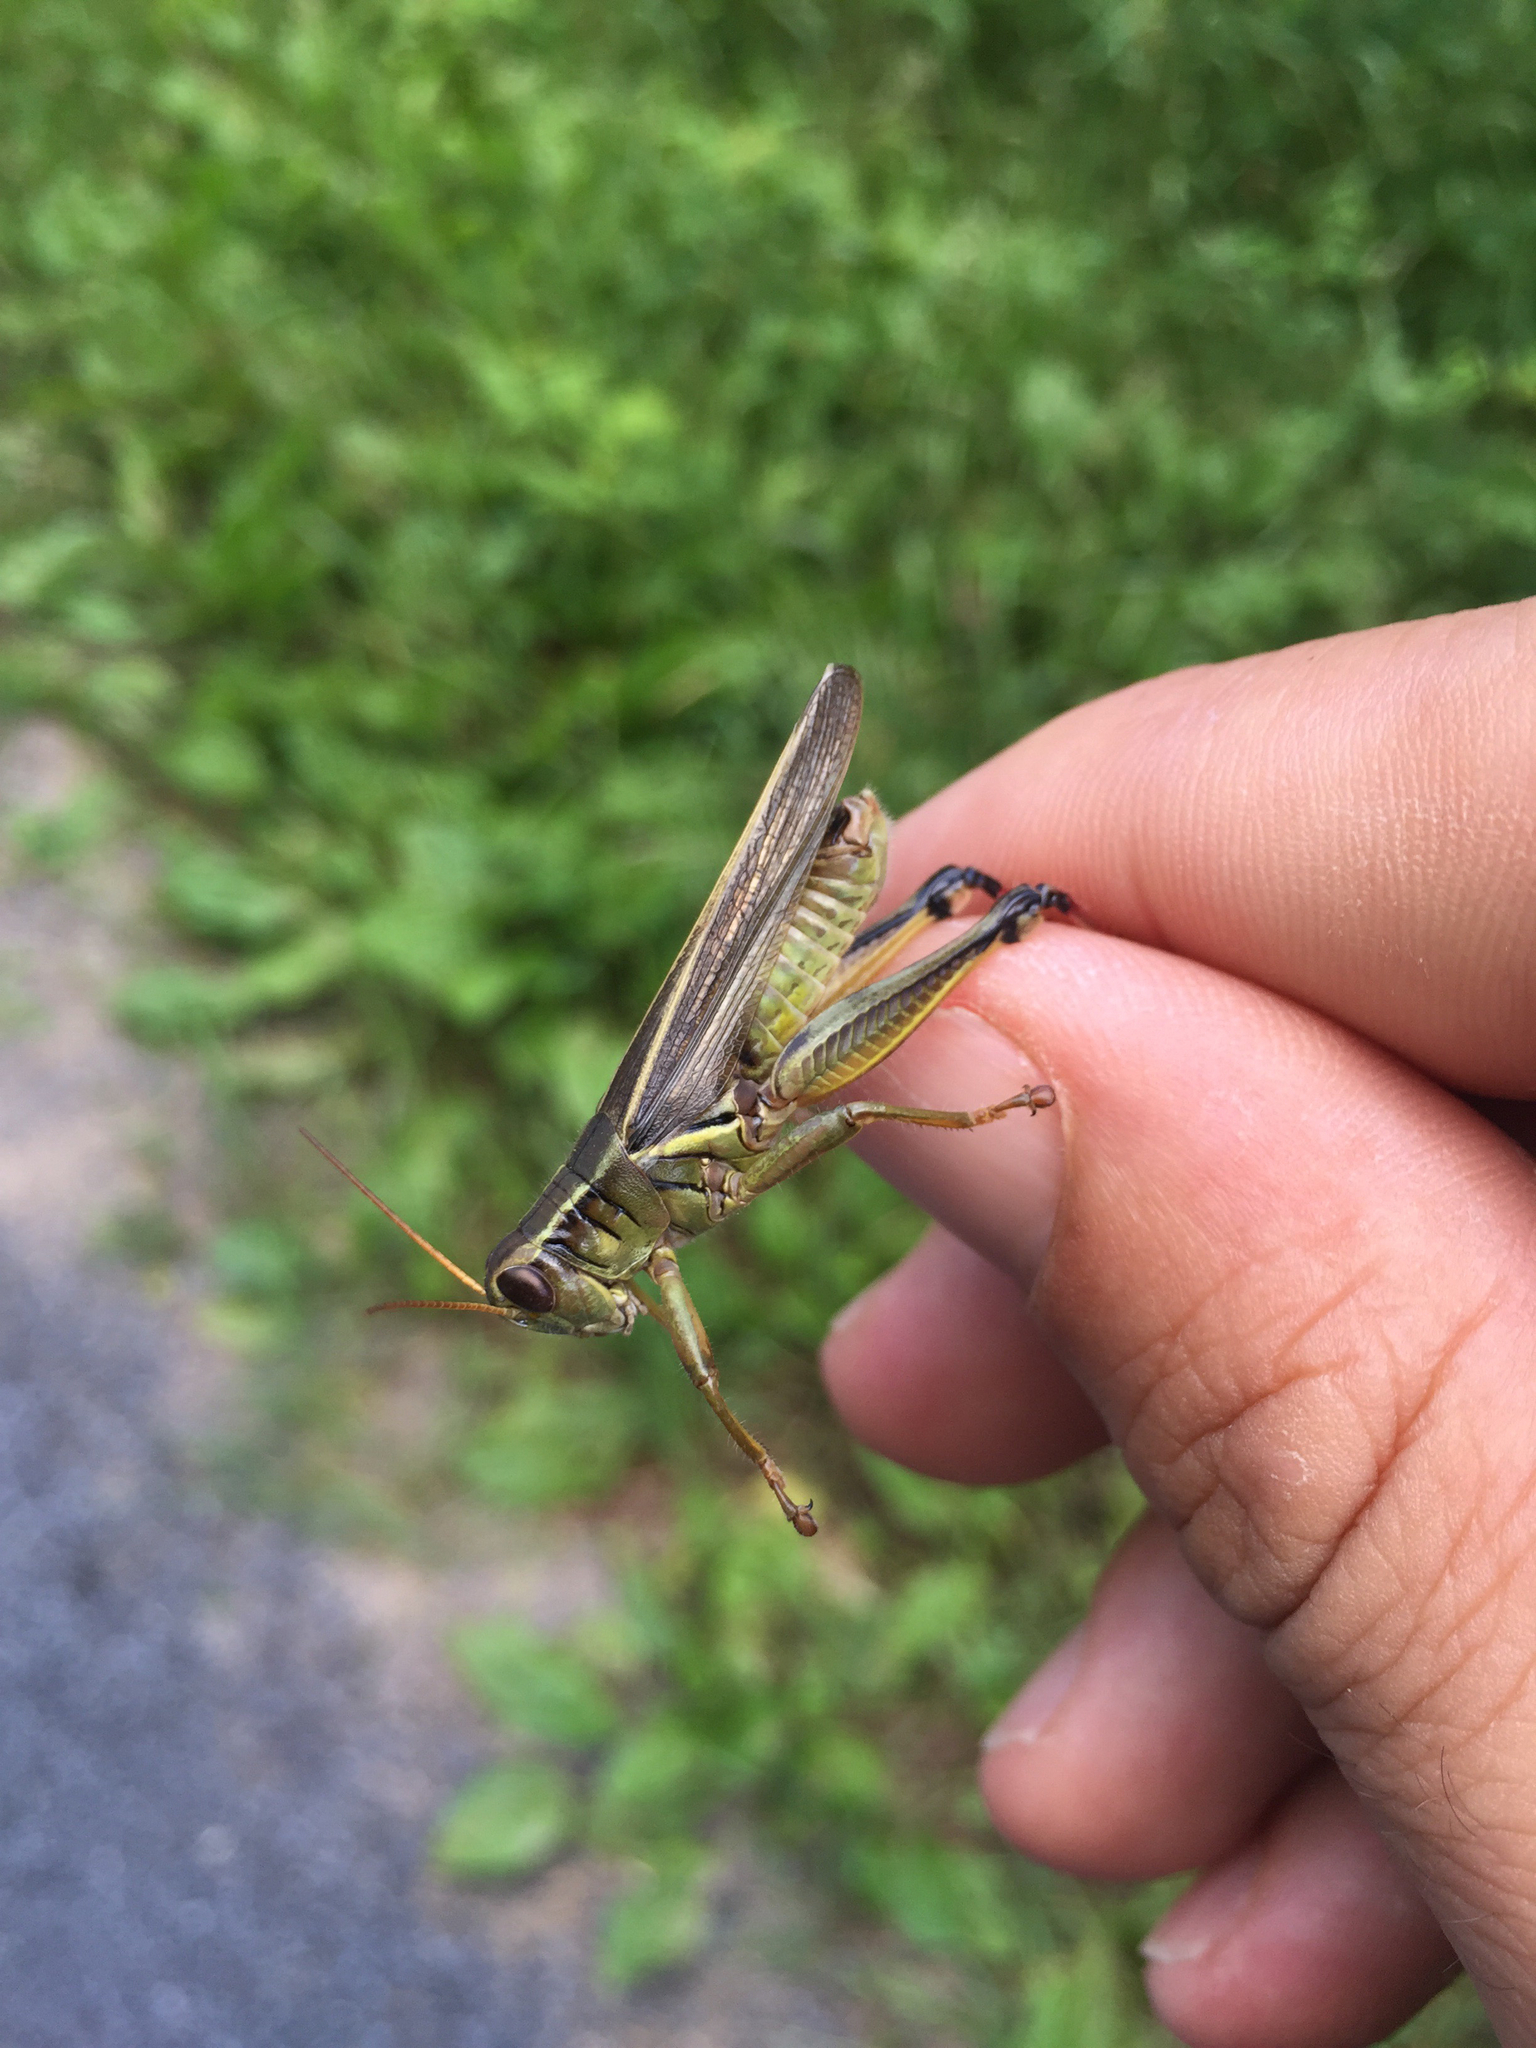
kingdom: Animalia
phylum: Arthropoda
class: Insecta
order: Orthoptera
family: Acrididae
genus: Melanoplus
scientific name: Melanoplus bivittatus
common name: Two-striped grasshopper
